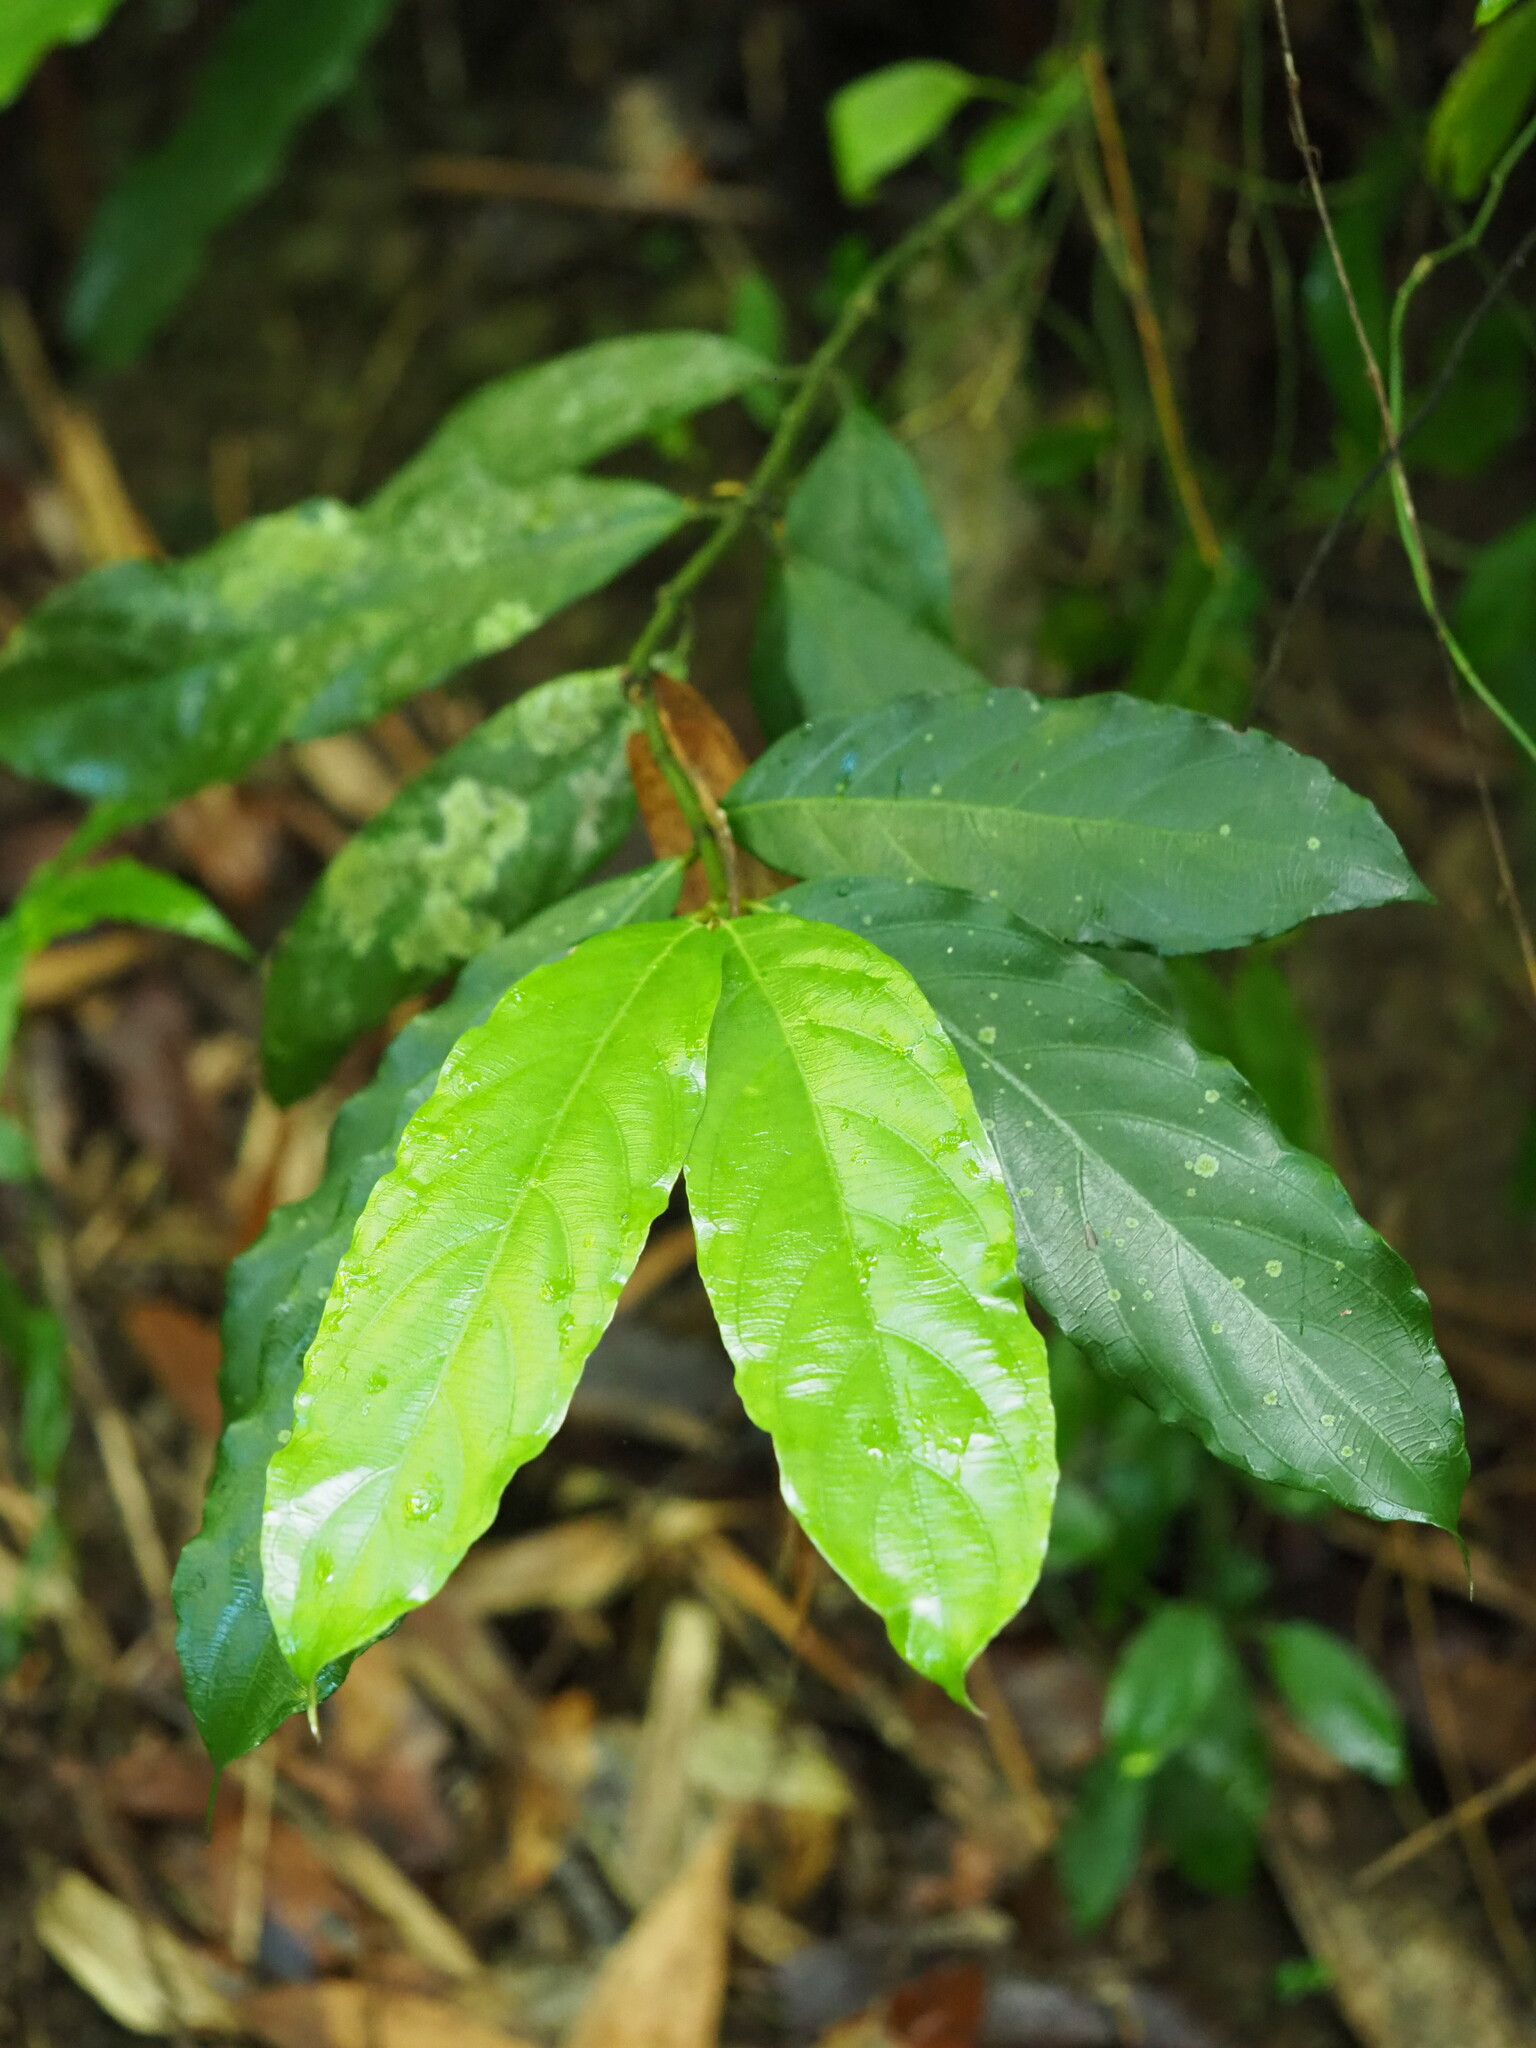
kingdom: Plantae
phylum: Tracheophyta
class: Magnoliopsida
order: Gentianales
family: Rubiaceae
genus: Lasianthus
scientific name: Lasianthus verticillatus
